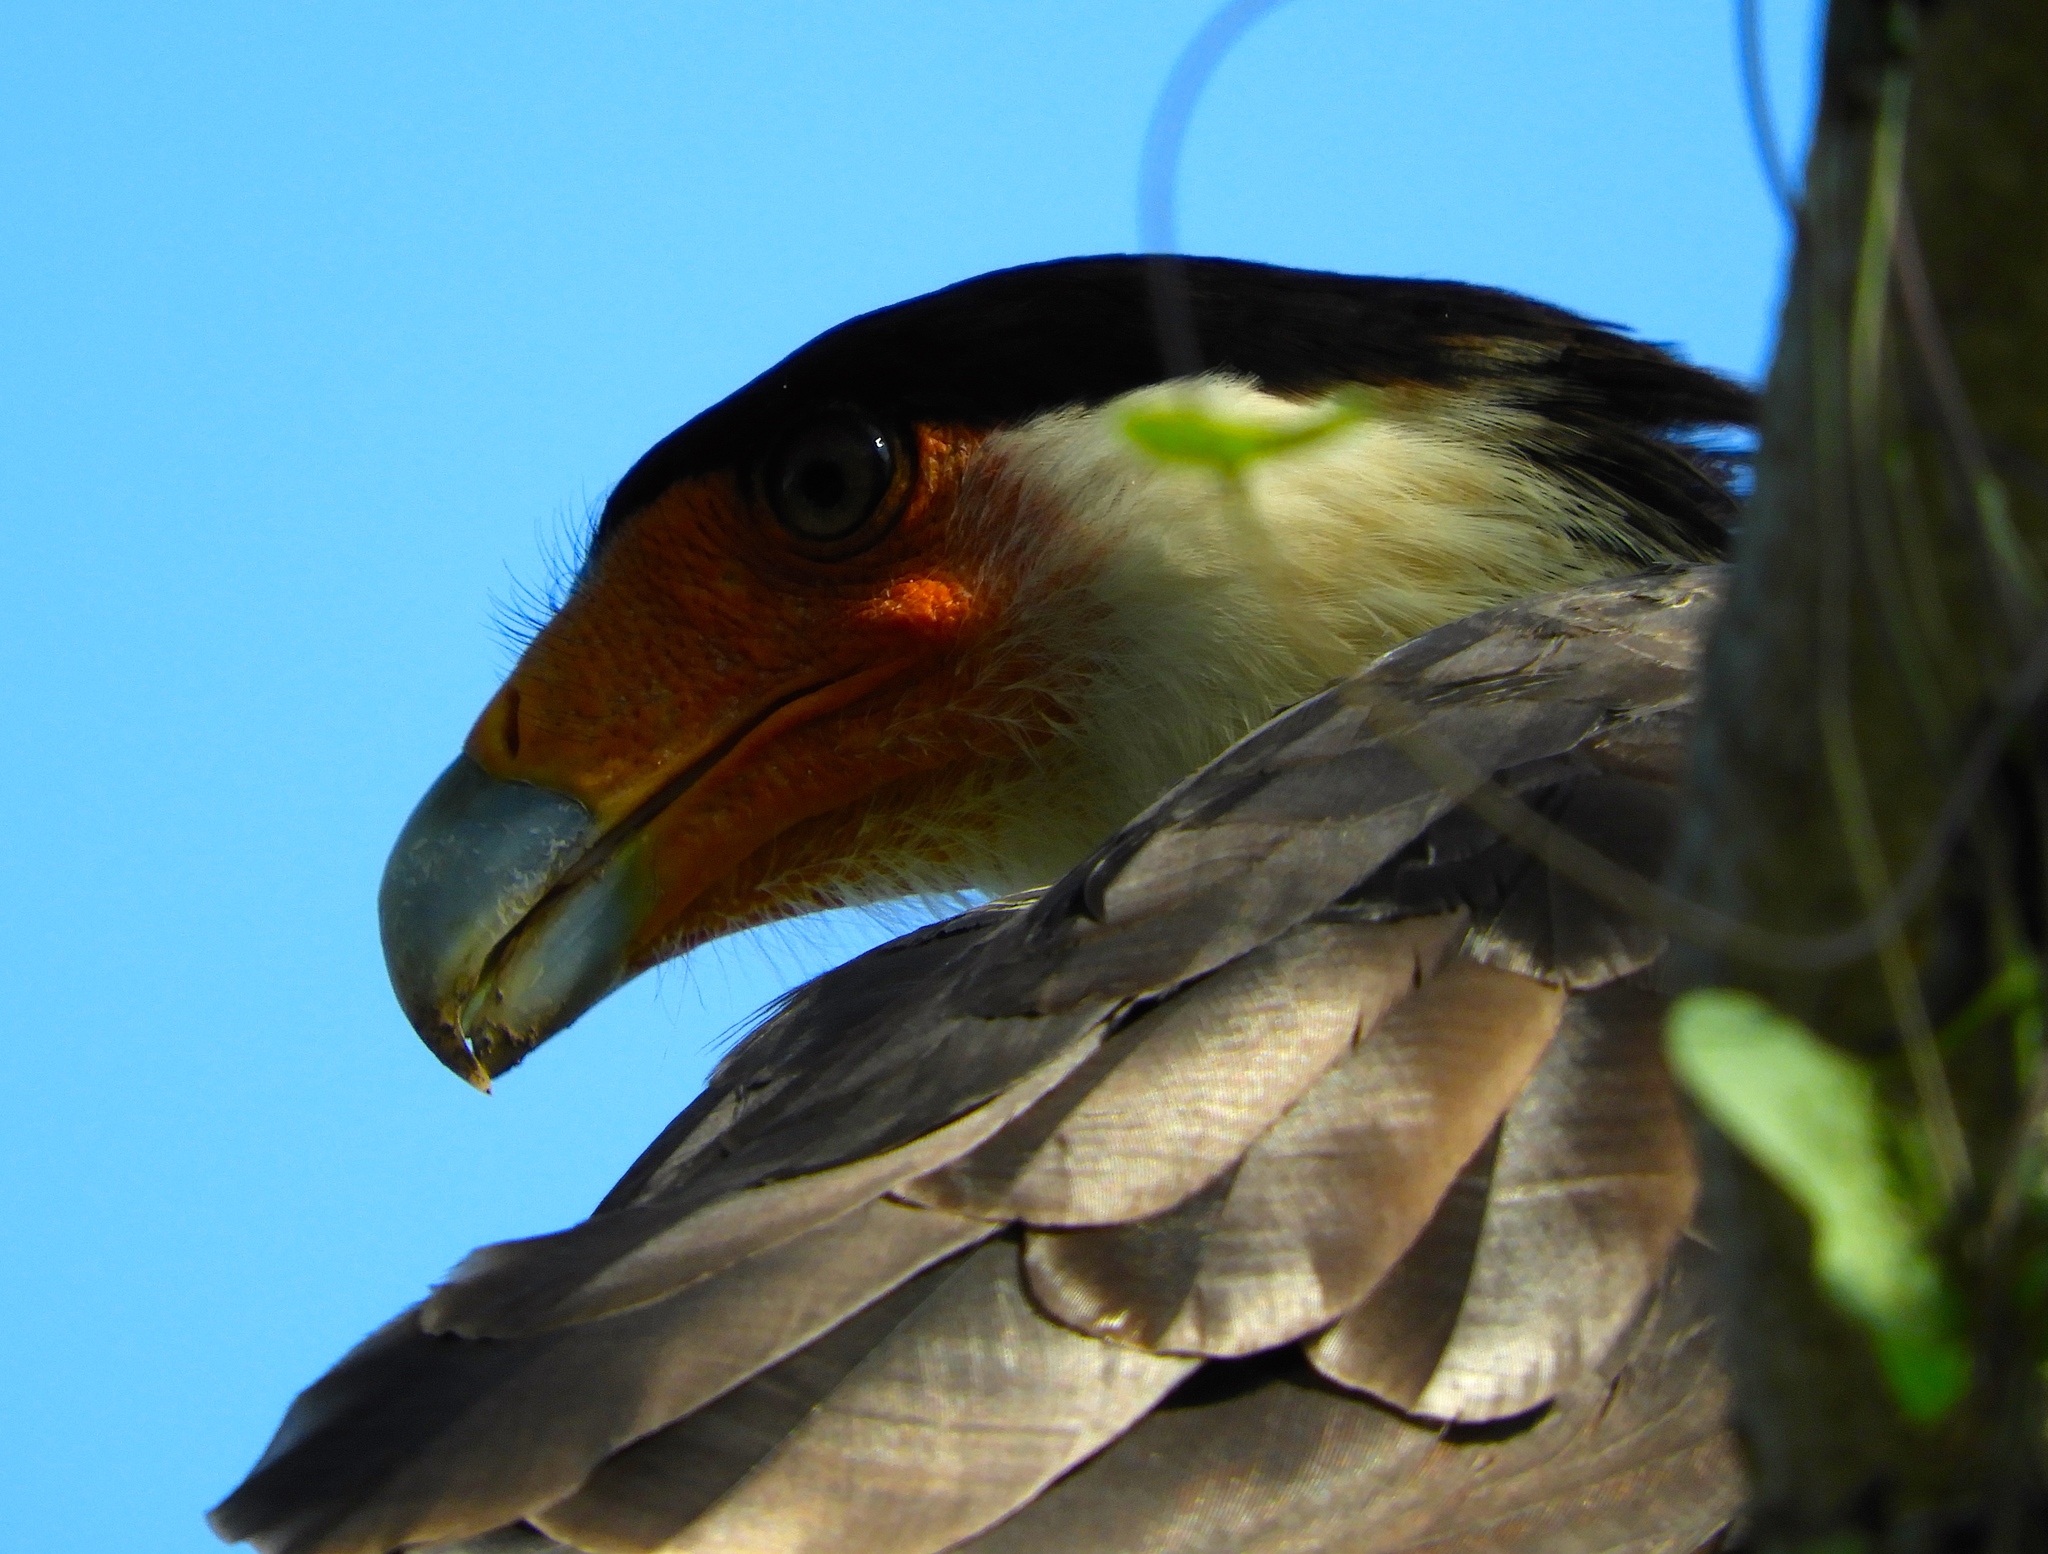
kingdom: Animalia
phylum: Chordata
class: Aves
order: Falconiformes
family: Falconidae
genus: Caracara
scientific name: Caracara plancus
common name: Southern caracara
